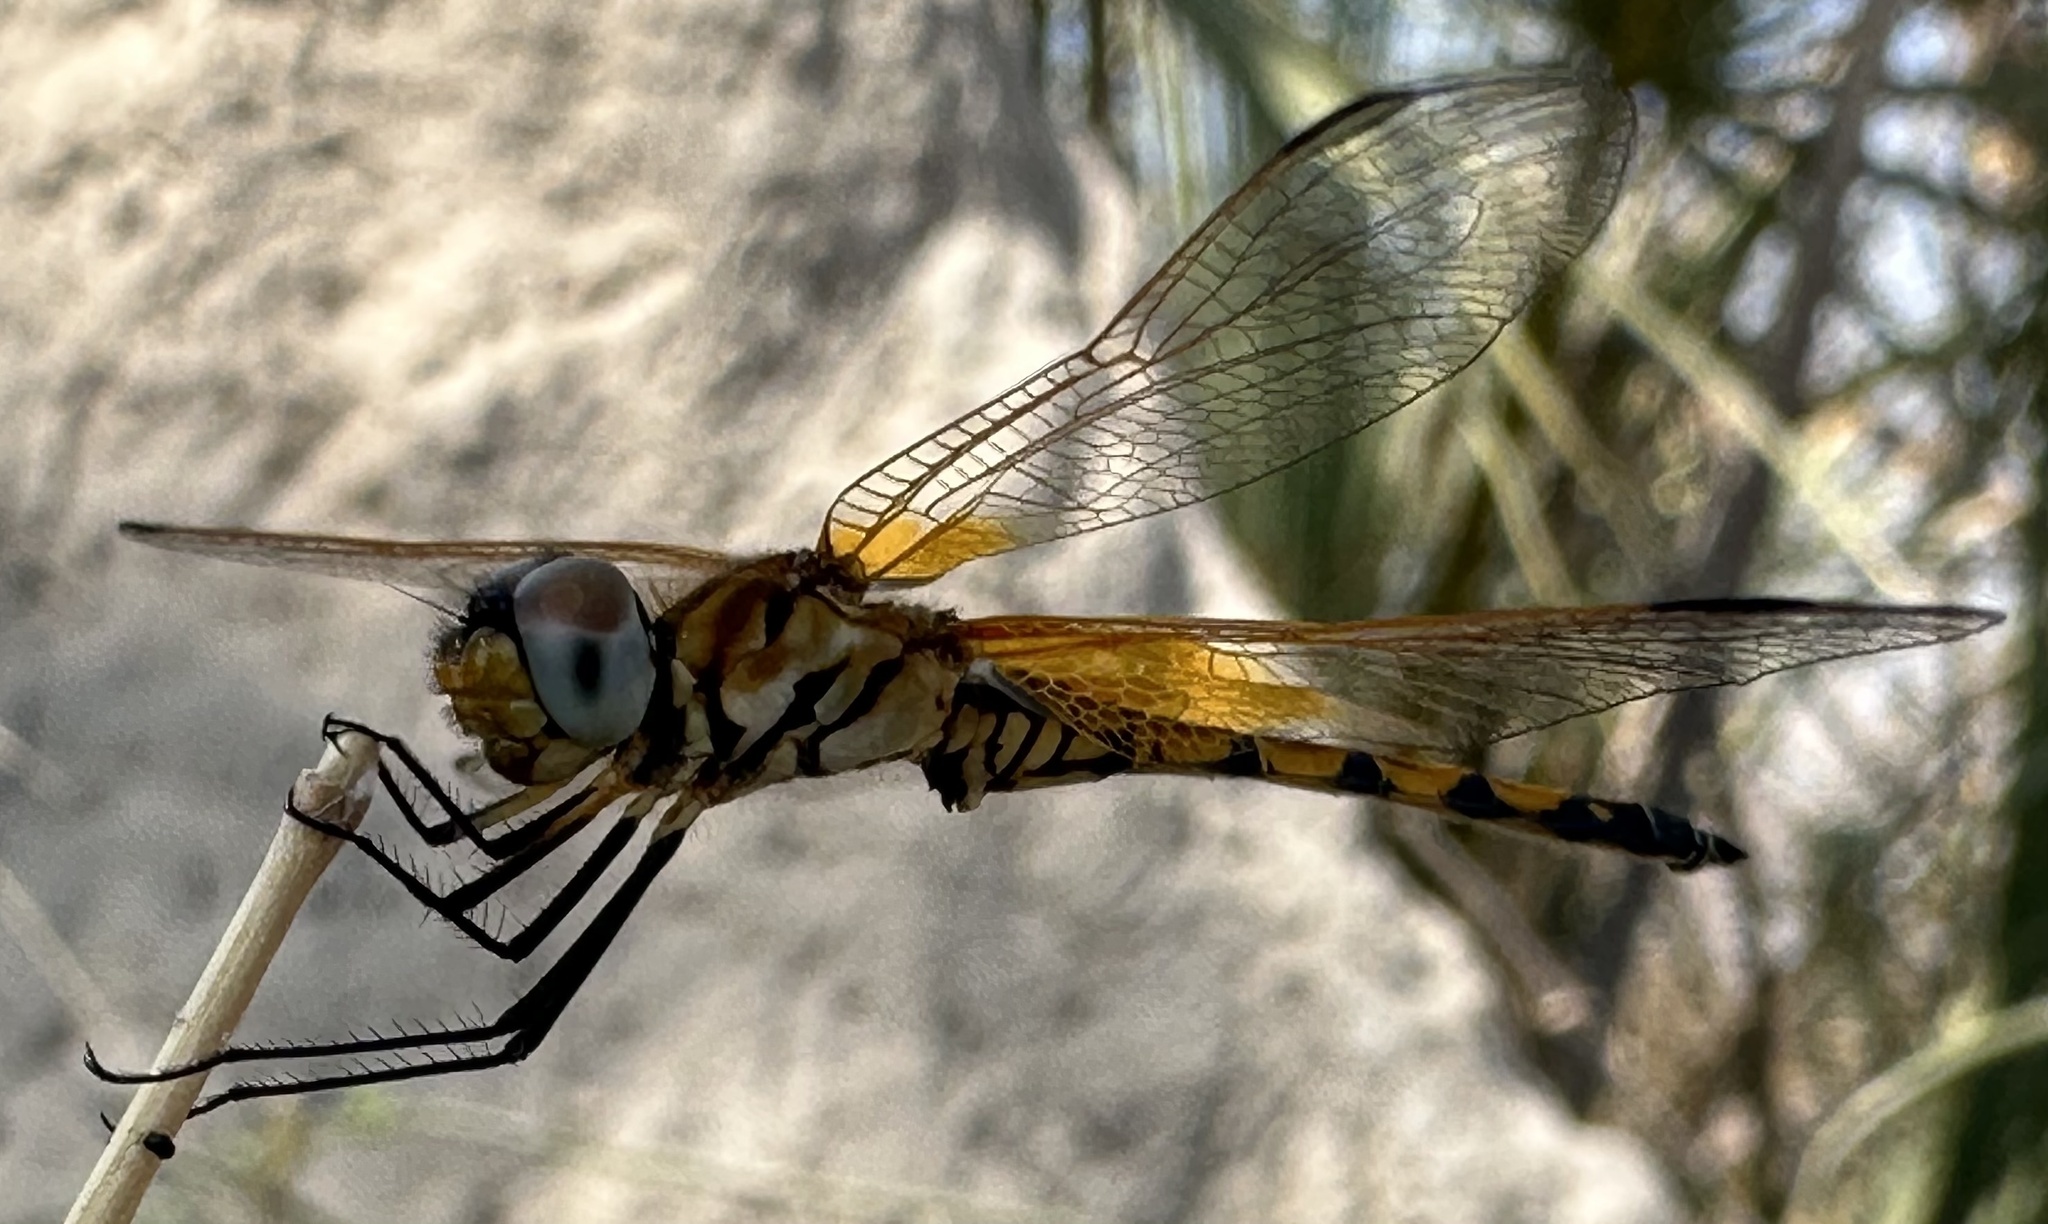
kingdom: Animalia
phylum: Arthropoda
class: Insecta
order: Odonata
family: Libellulidae
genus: Trithemis
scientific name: Trithemis monardi
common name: Monard's dropwing
